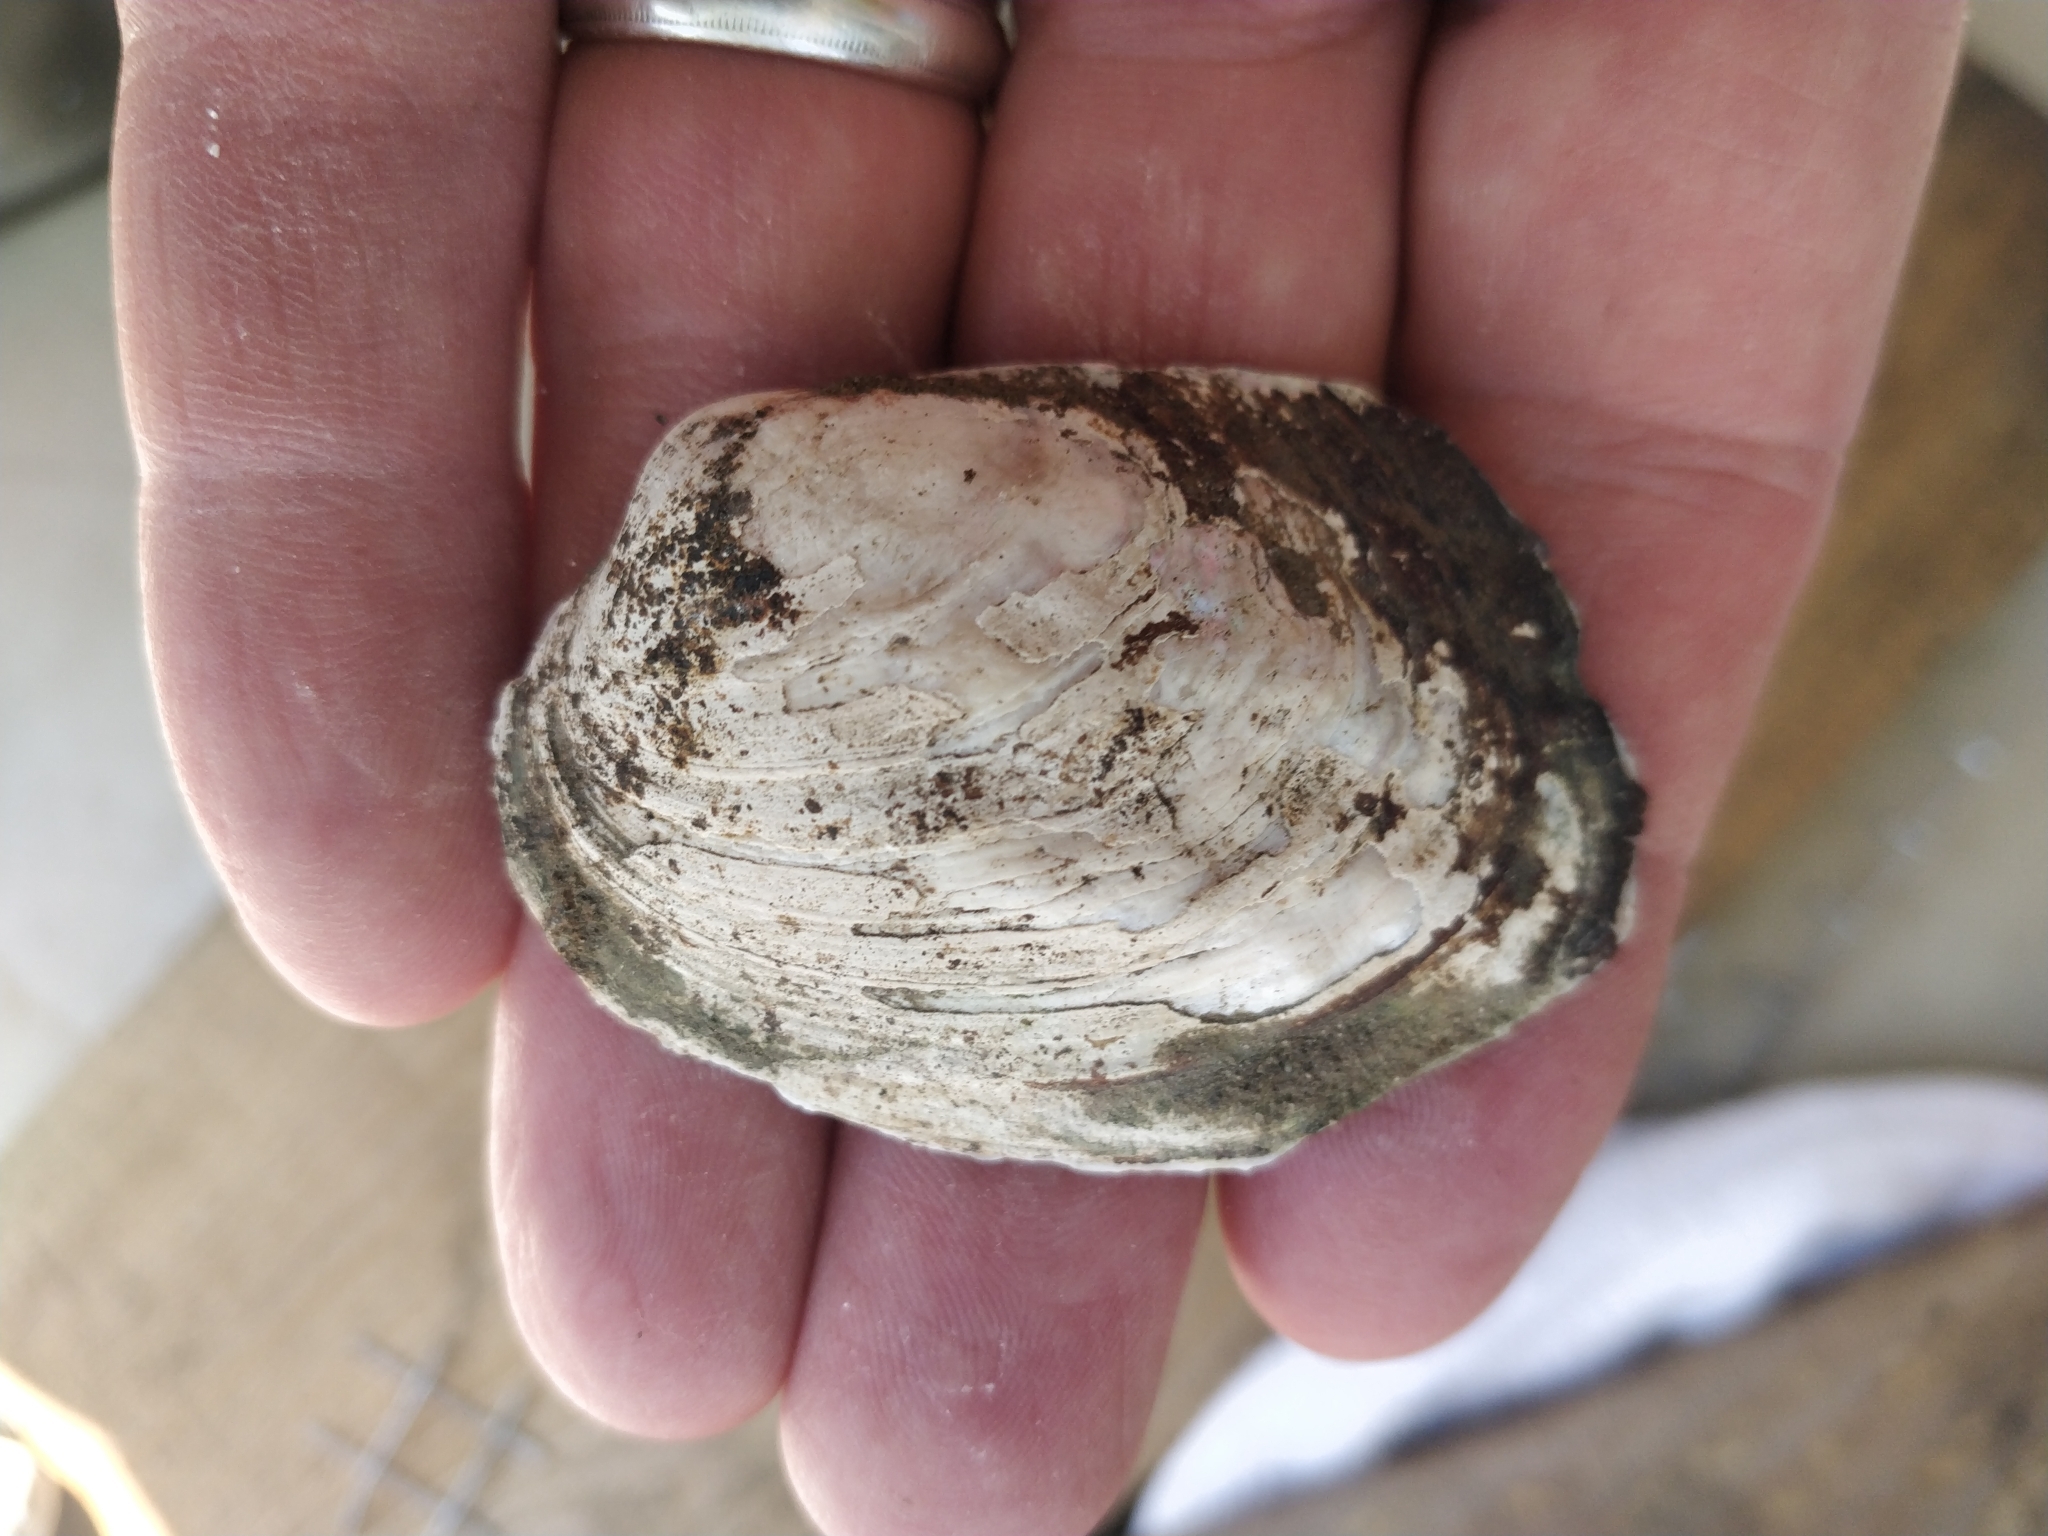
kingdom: Animalia
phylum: Mollusca
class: Bivalvia
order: Unionida
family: Unionidae
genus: Amblema
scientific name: Amblema plicata
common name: Threeridge
